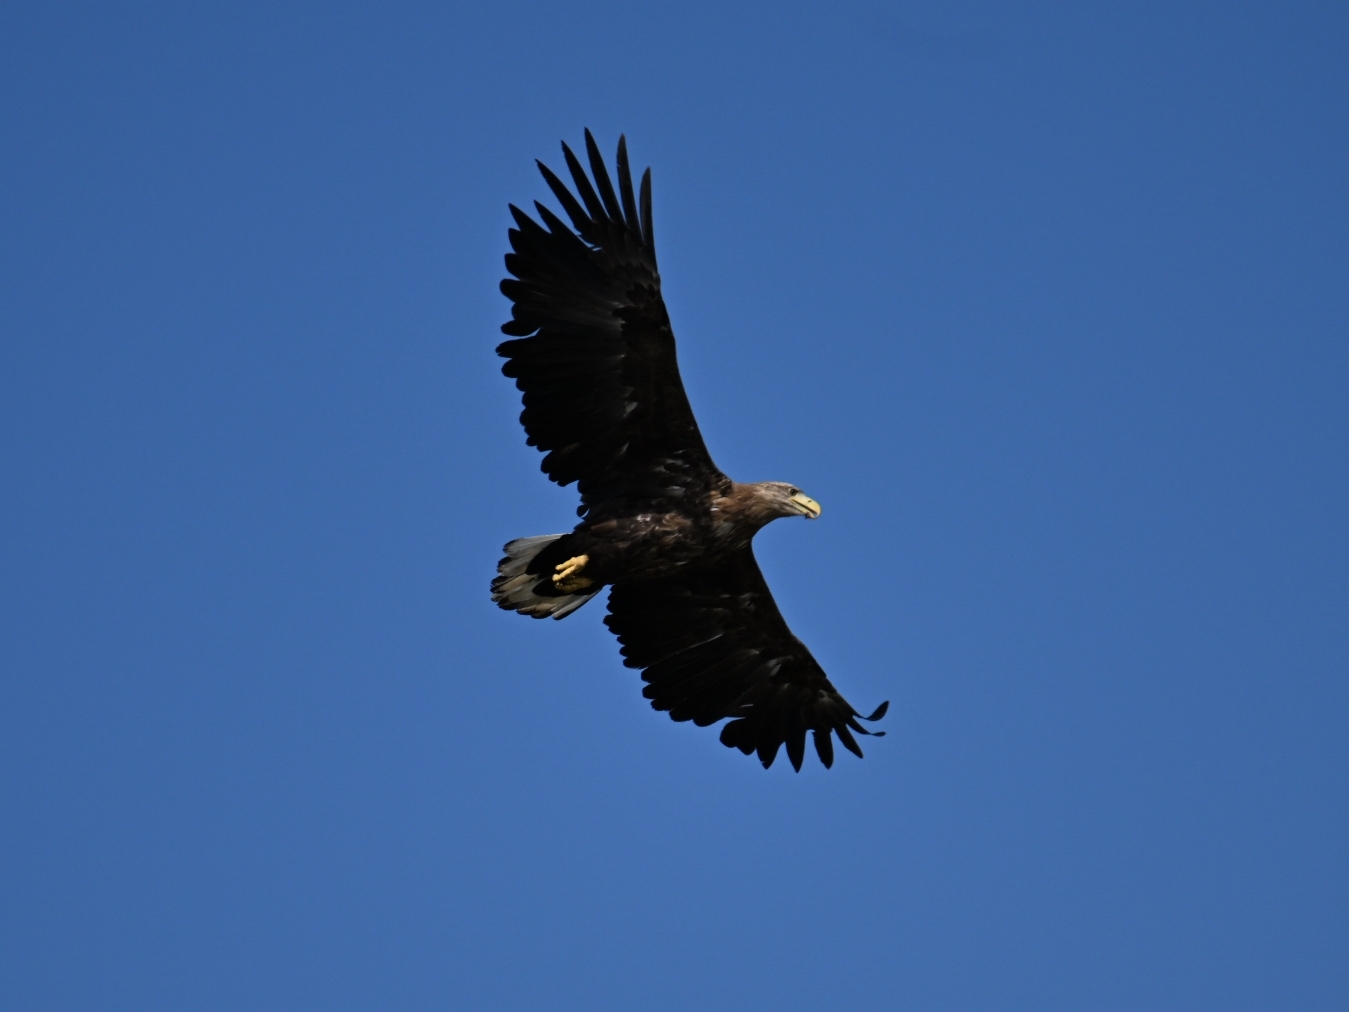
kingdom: Animalia
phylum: Chordata
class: Aves
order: Accipitriformes
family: Accipitridae
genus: Haliaeetus
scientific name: Haliaeetus albicilla
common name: White-tailed eagle
